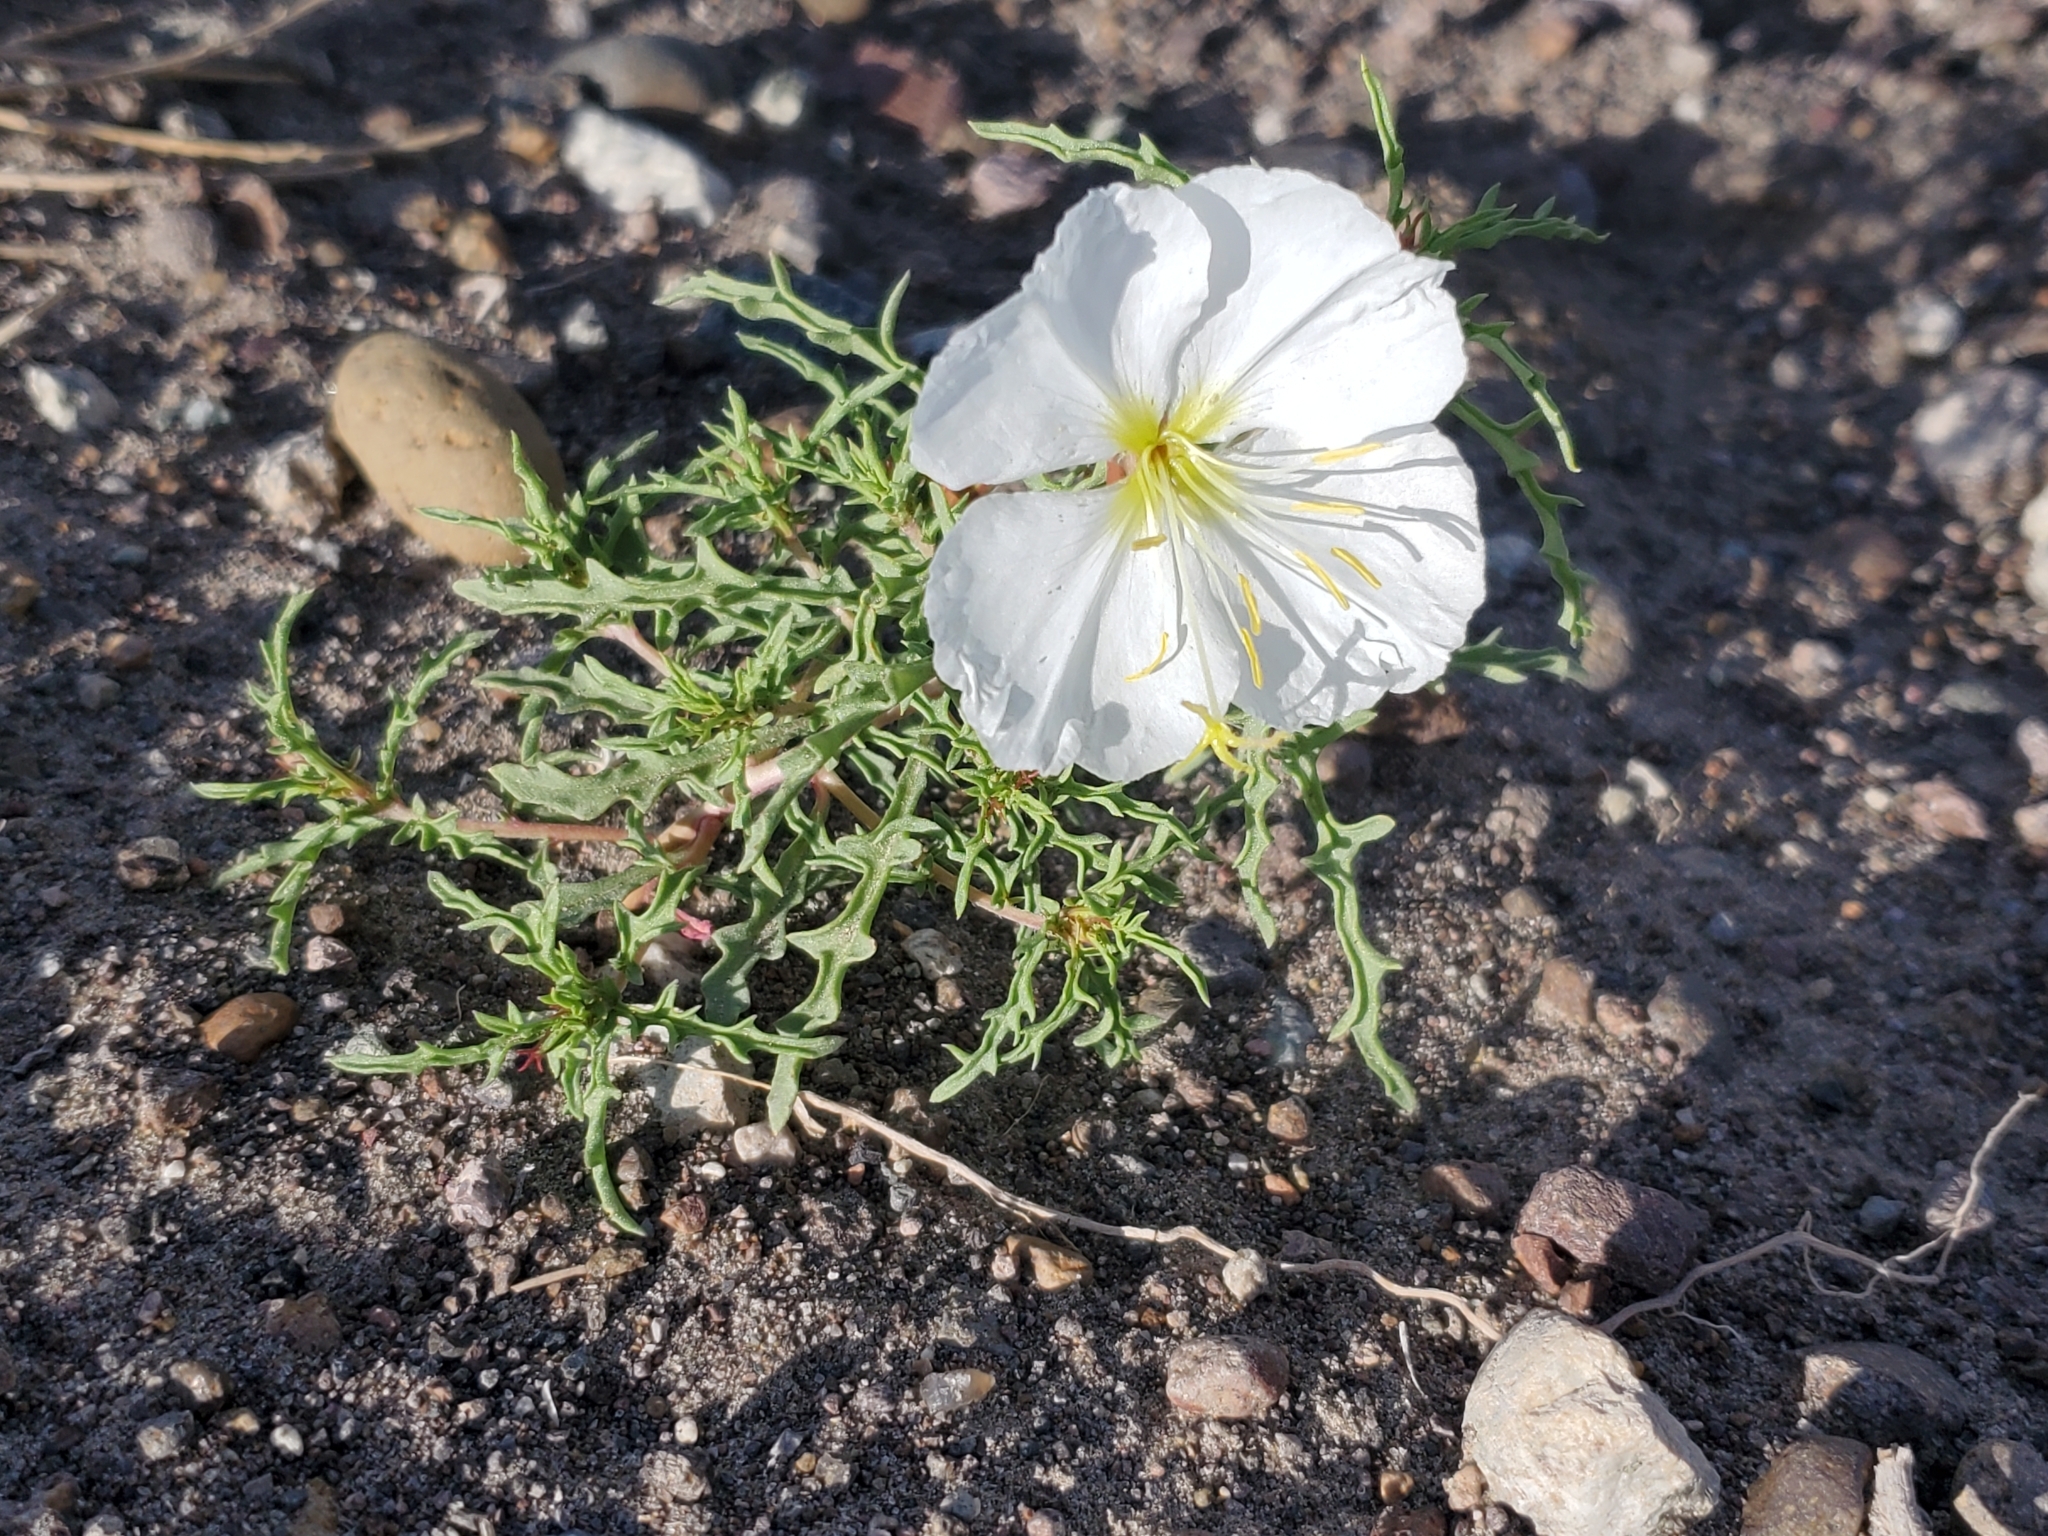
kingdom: Plantae
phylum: Tracheophyta
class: Magnoliopsida
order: Myrtales
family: Onagraceae
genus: Oenothera
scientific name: Oenothera pallida
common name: Pale evening-primrose
